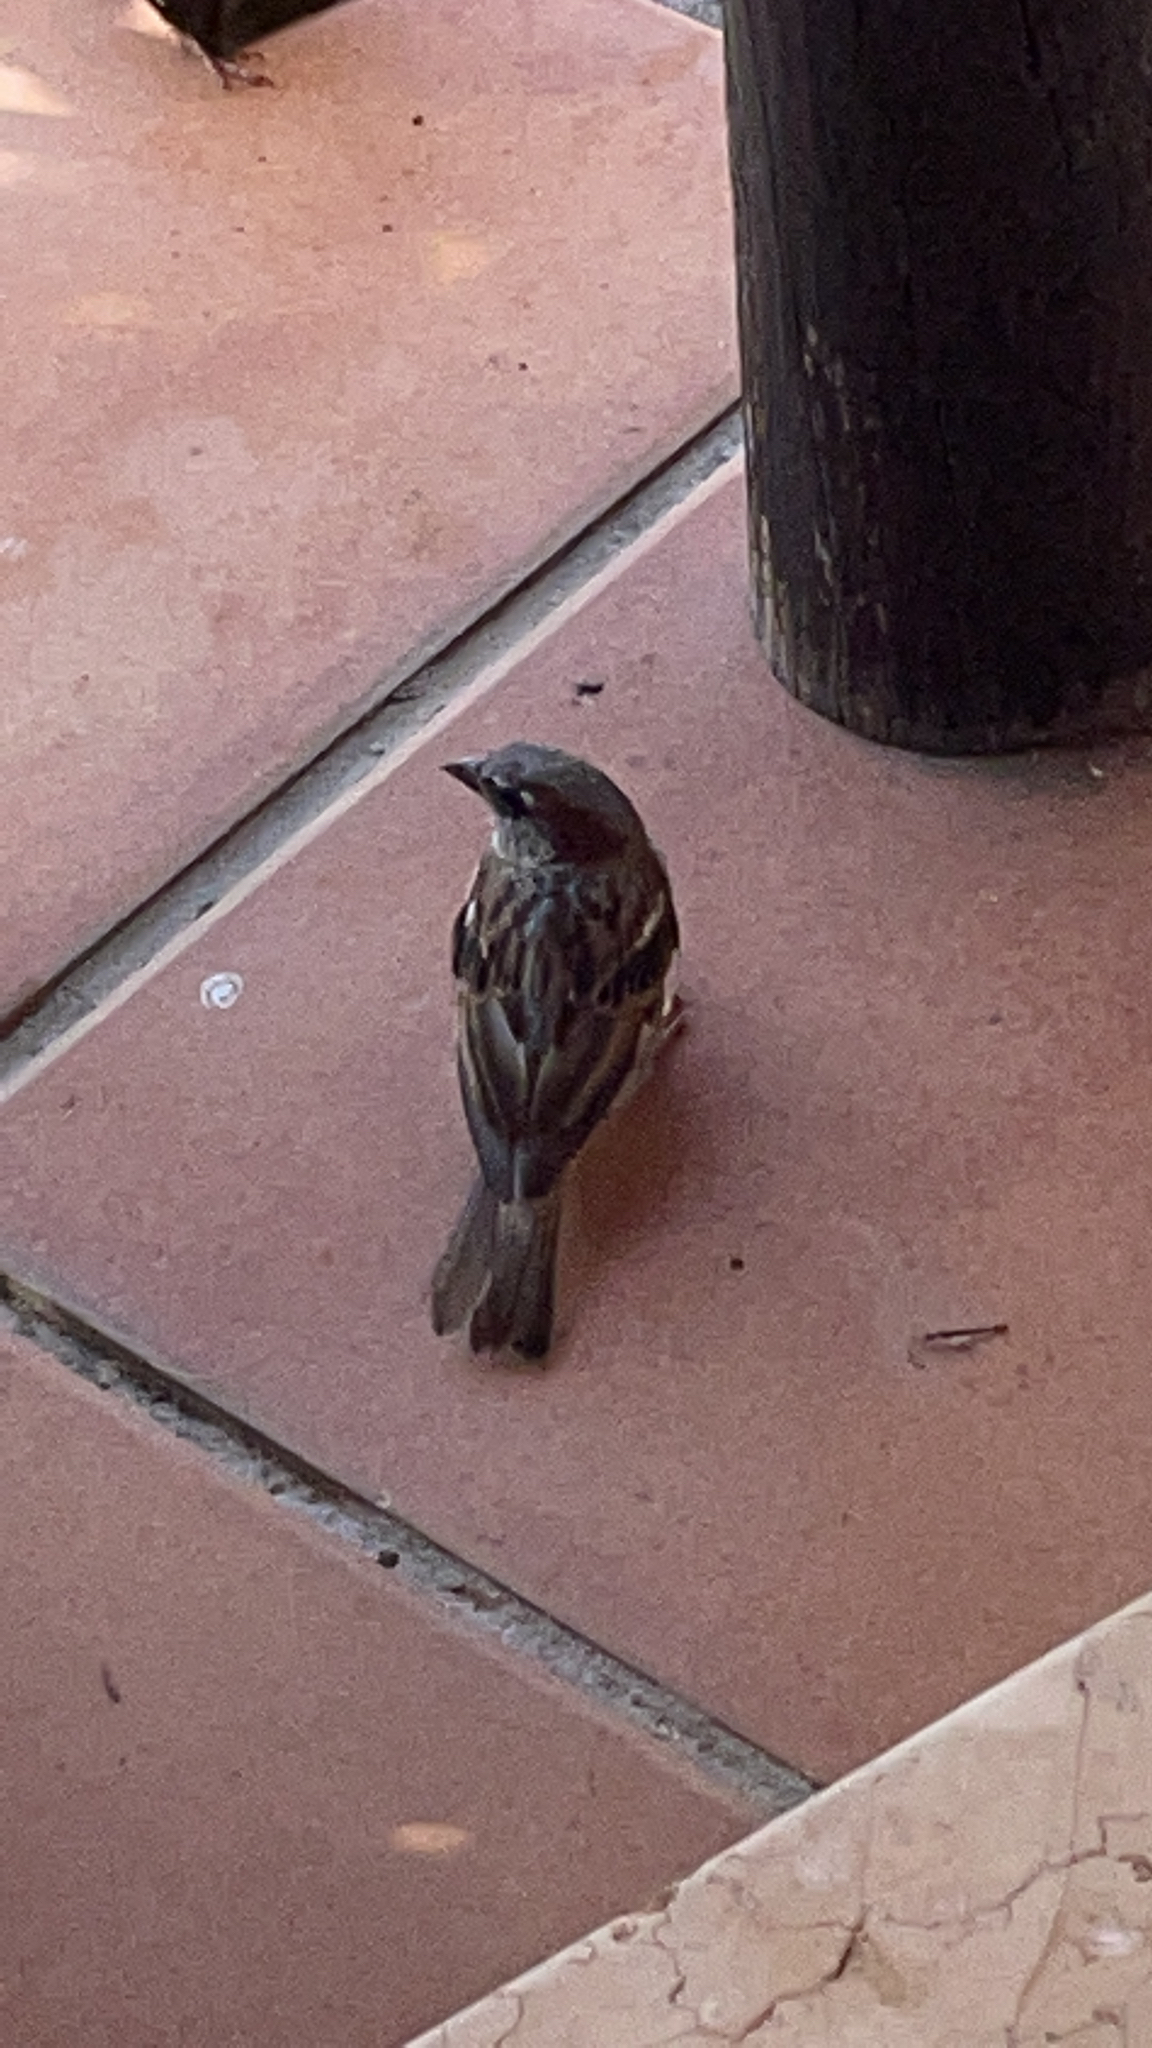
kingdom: Animalia
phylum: Chordata
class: Aves
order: Passeriformes
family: Passeridae
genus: Passer
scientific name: Passer domesticus
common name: House sparrow
